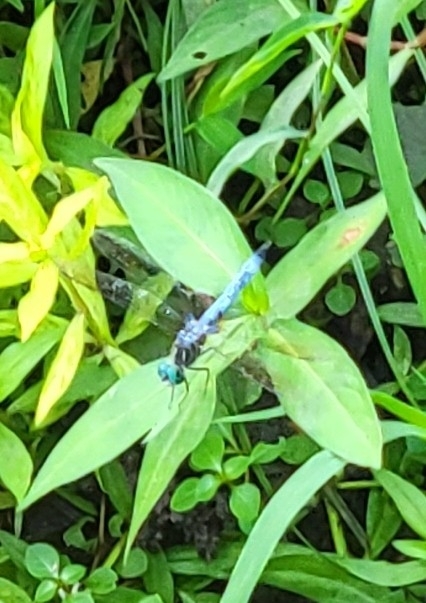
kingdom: Animalia
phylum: Arthropoda
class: Insecta
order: Odonata
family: Libellulidae
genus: Pachydiplax
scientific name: Pachydiplax longipennis
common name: Blue dasher
